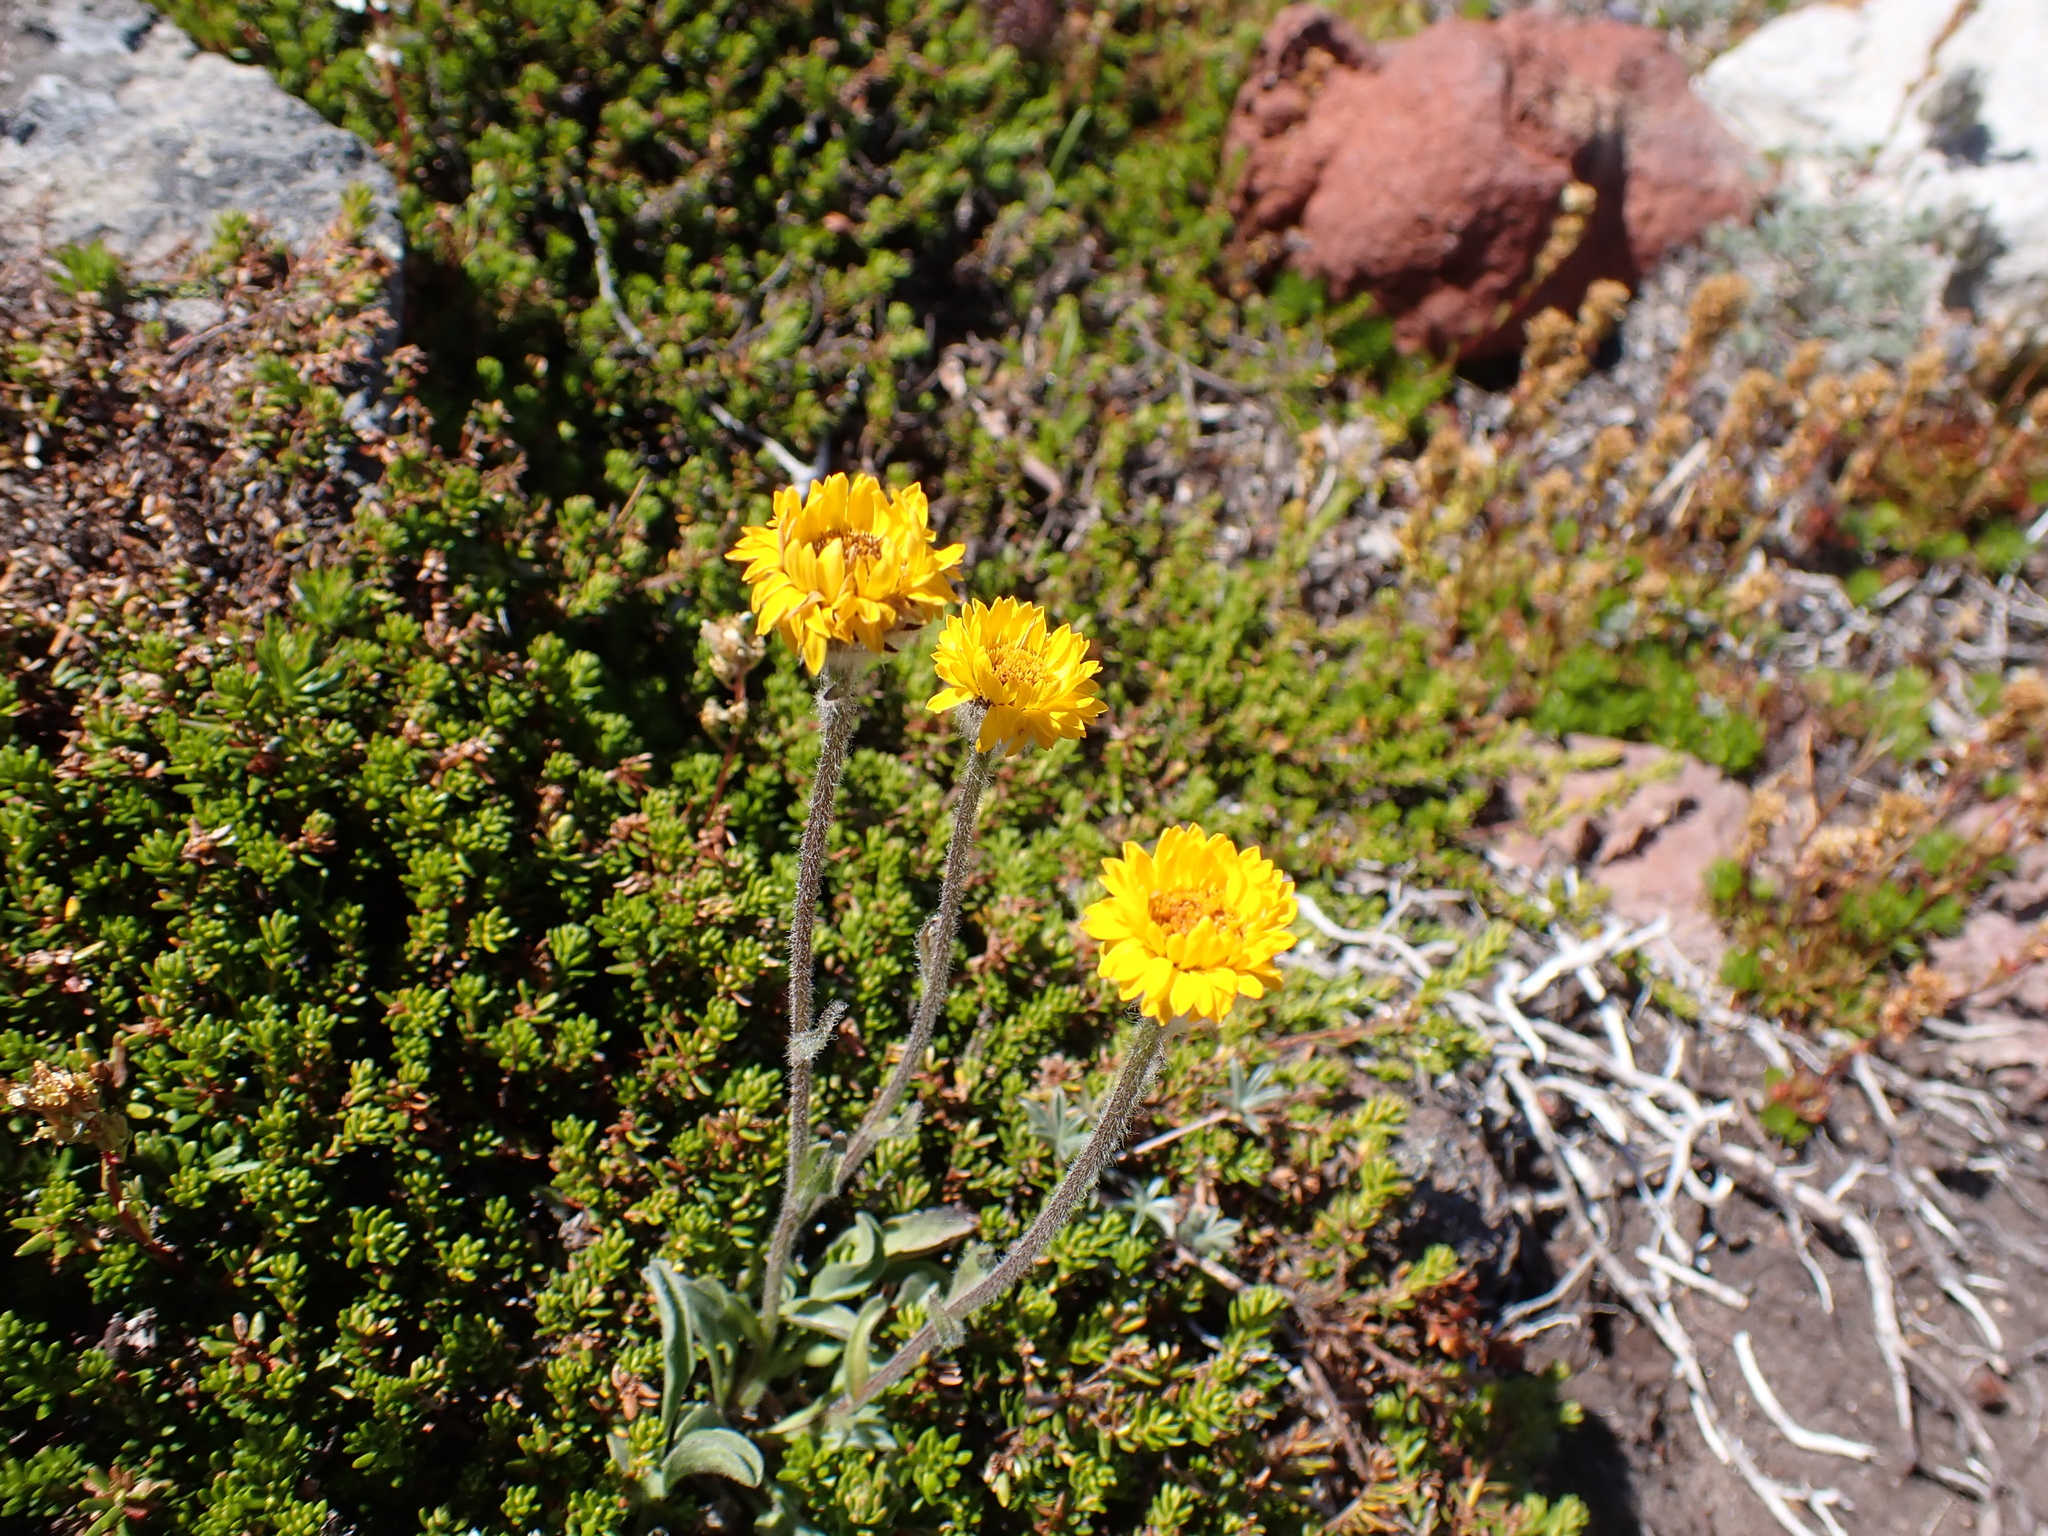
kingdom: Plantae
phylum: Tracheophyta
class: Magnoliopsida
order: Asterales
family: Asteraceae
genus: Erigeron
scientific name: Erigeron aureus
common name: Alpine yellow fleabane
